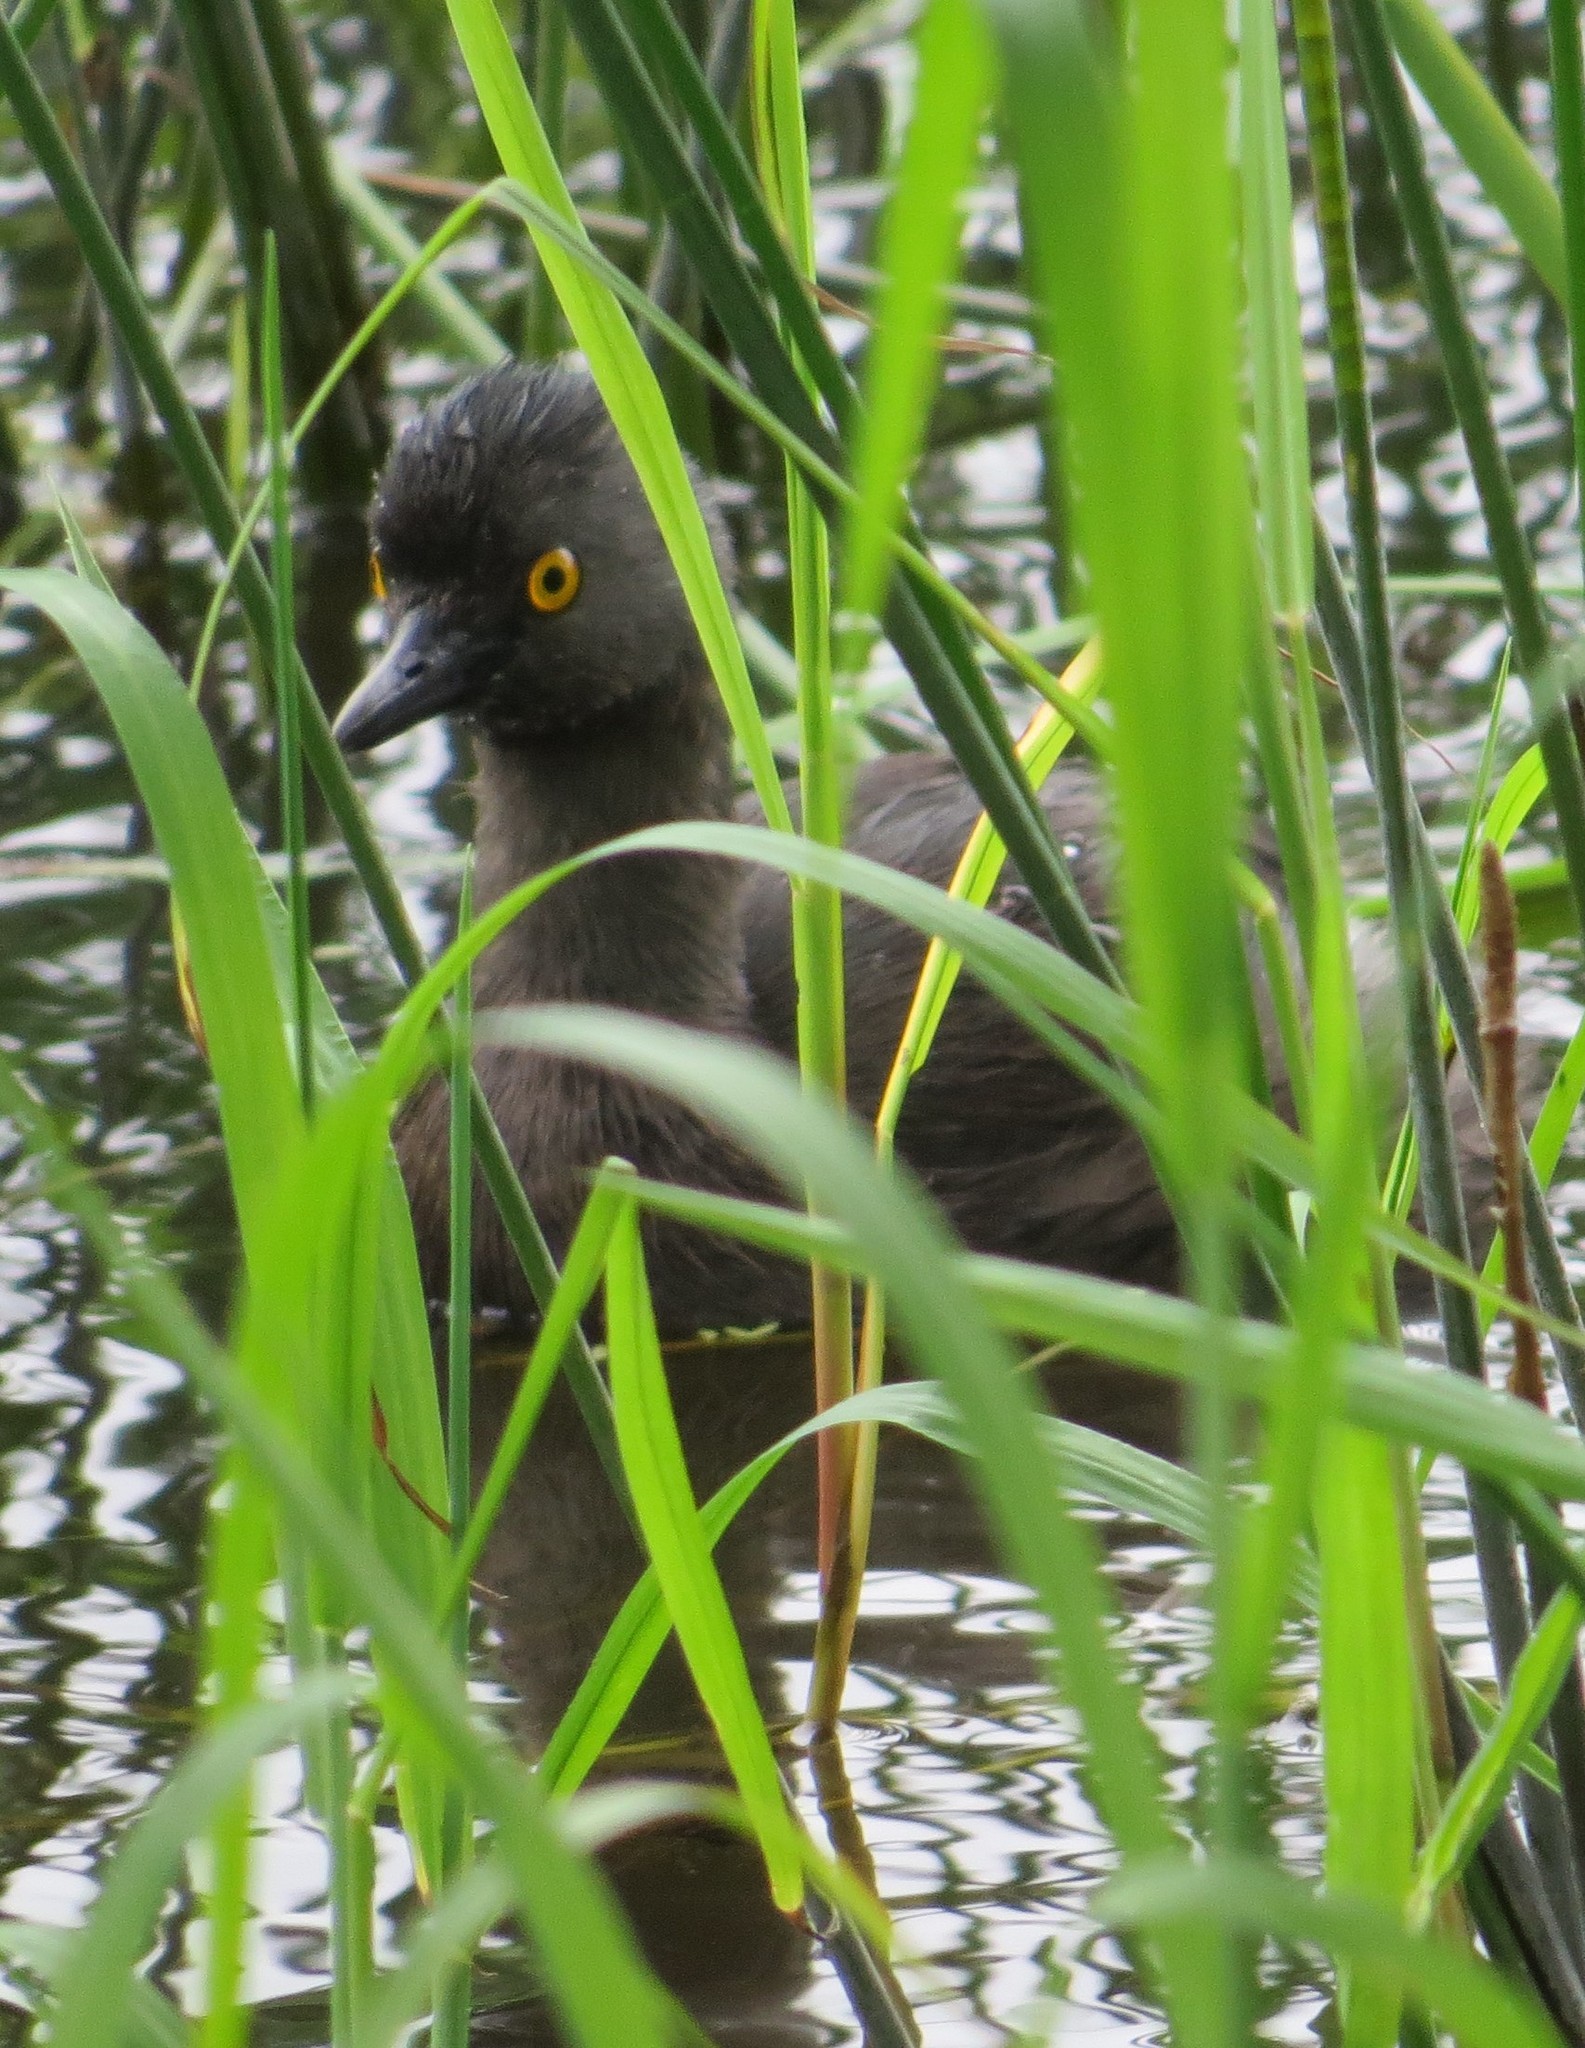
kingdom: Animalia
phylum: Chordata
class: Aves
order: Podicipediformes
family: Podicipedidae
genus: Tachybaptus
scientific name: Tachybaptus dominicus
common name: Least grebe
